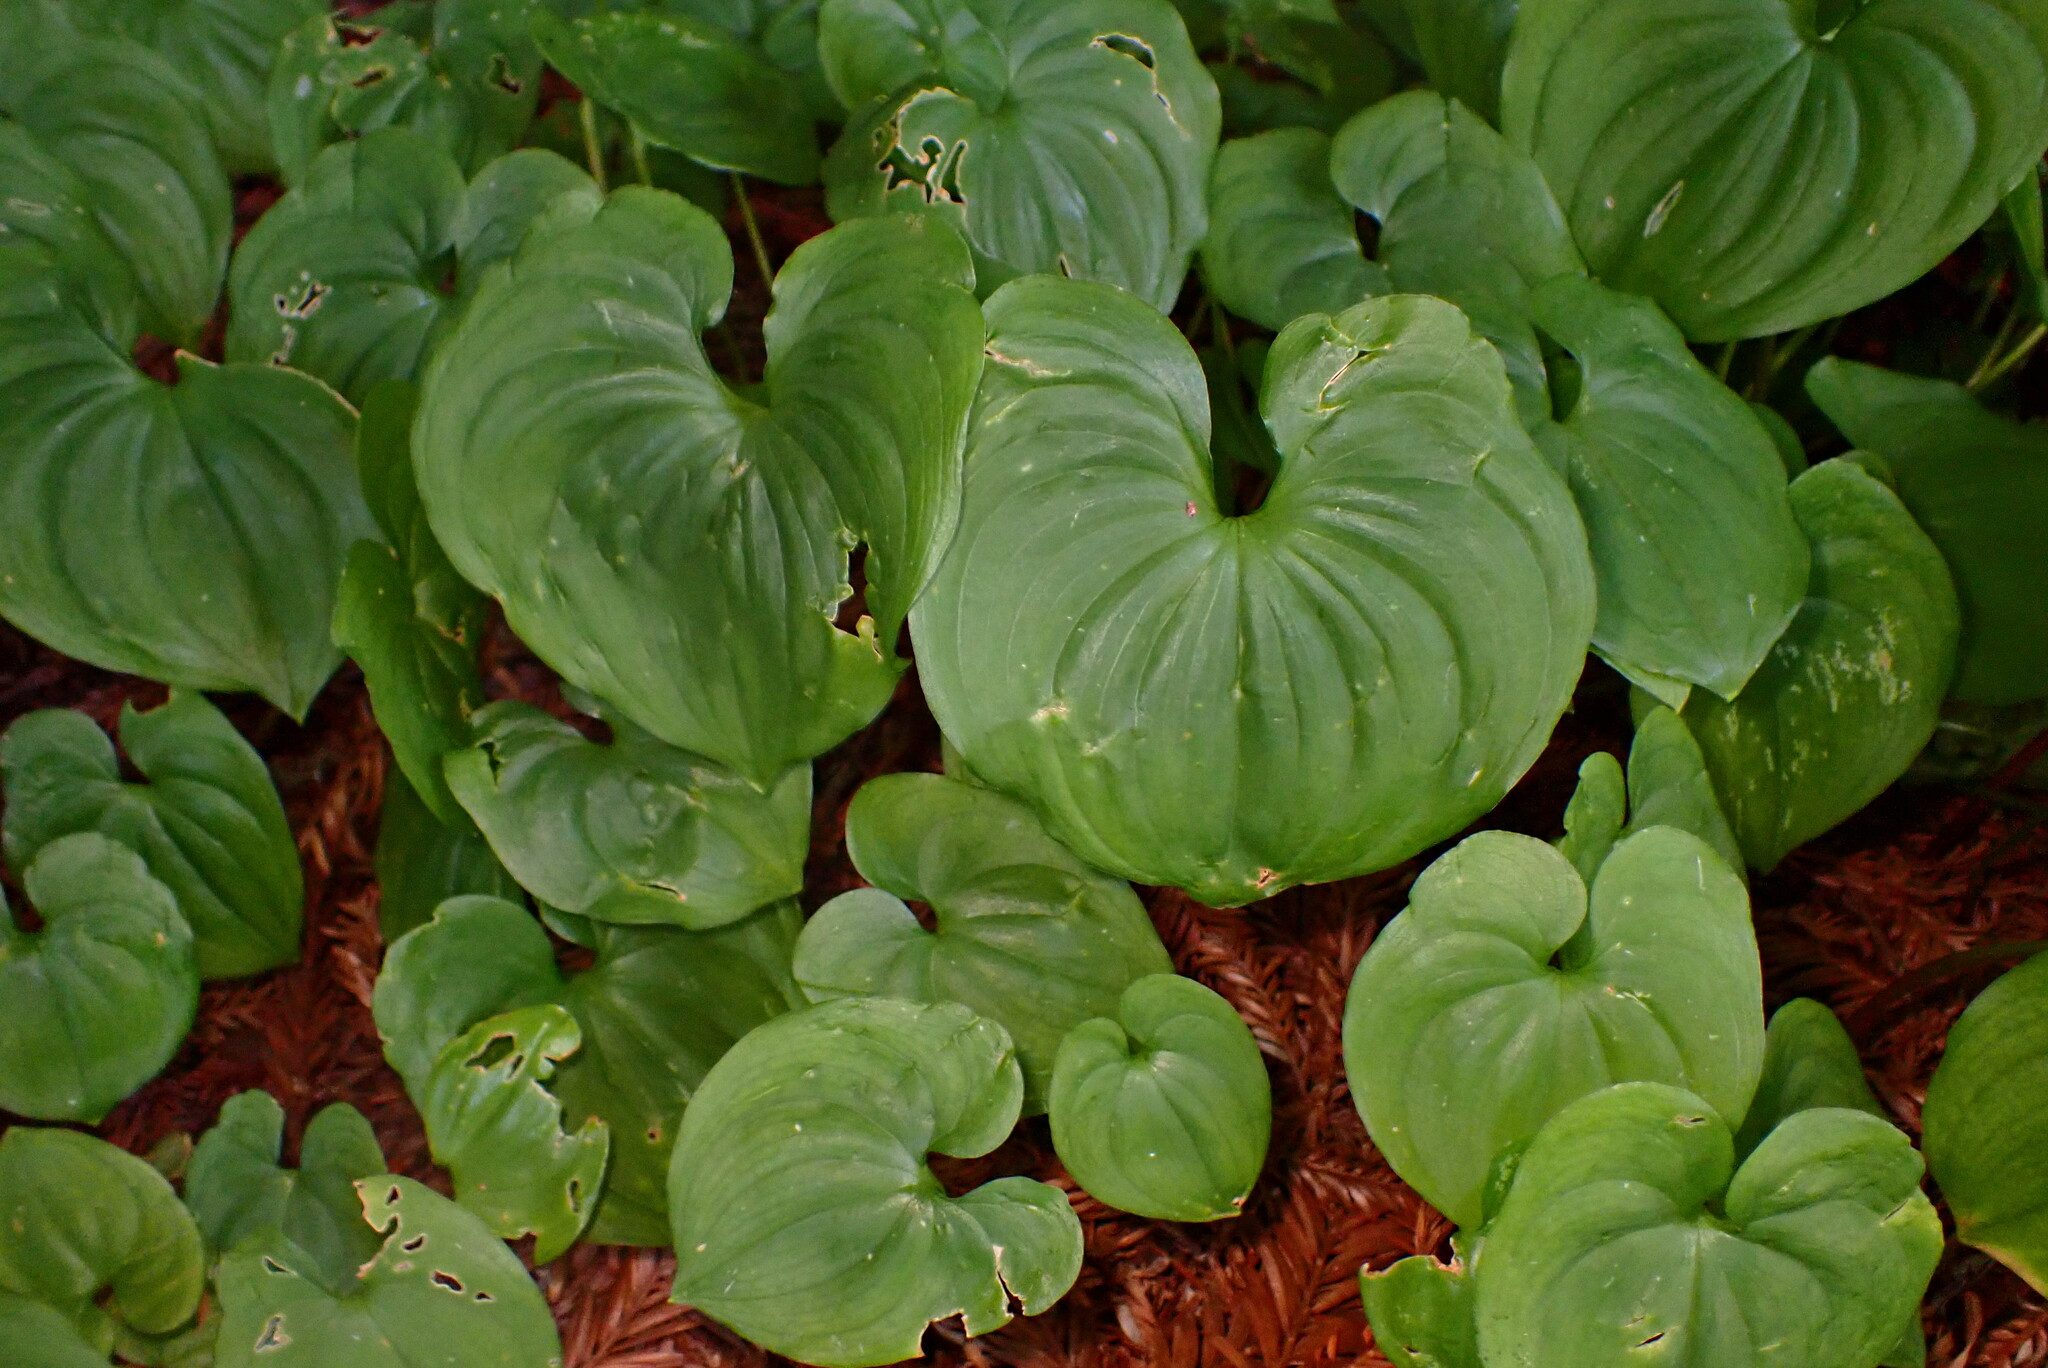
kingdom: Plantae
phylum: Tracheophyta
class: Liliopsida
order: Asparagales
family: Asparagaceae
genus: Maianthemum
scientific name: Maianthemum dilatatum
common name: False lily-of-the-valley
